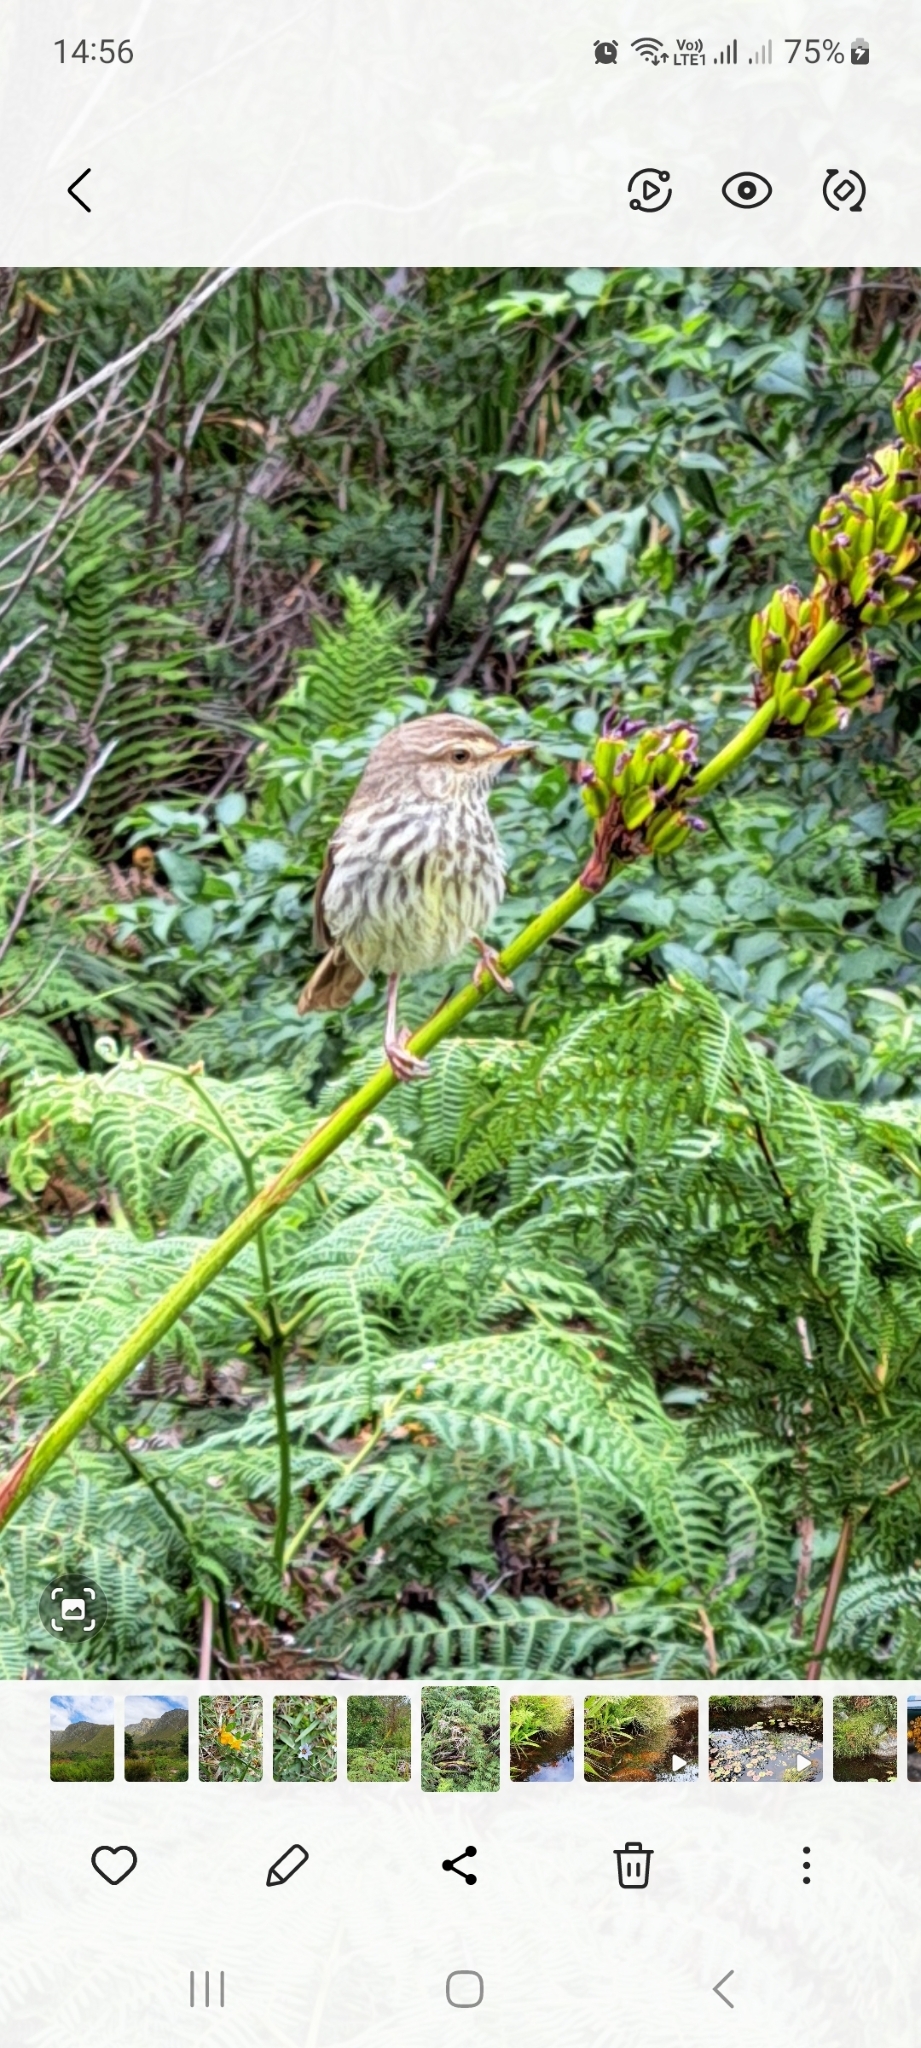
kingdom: Animalia
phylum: Chordata
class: Aves
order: Passeriformes
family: Cisticolidae
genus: Prinia
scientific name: Prinia maculosa
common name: Karoo prinia
